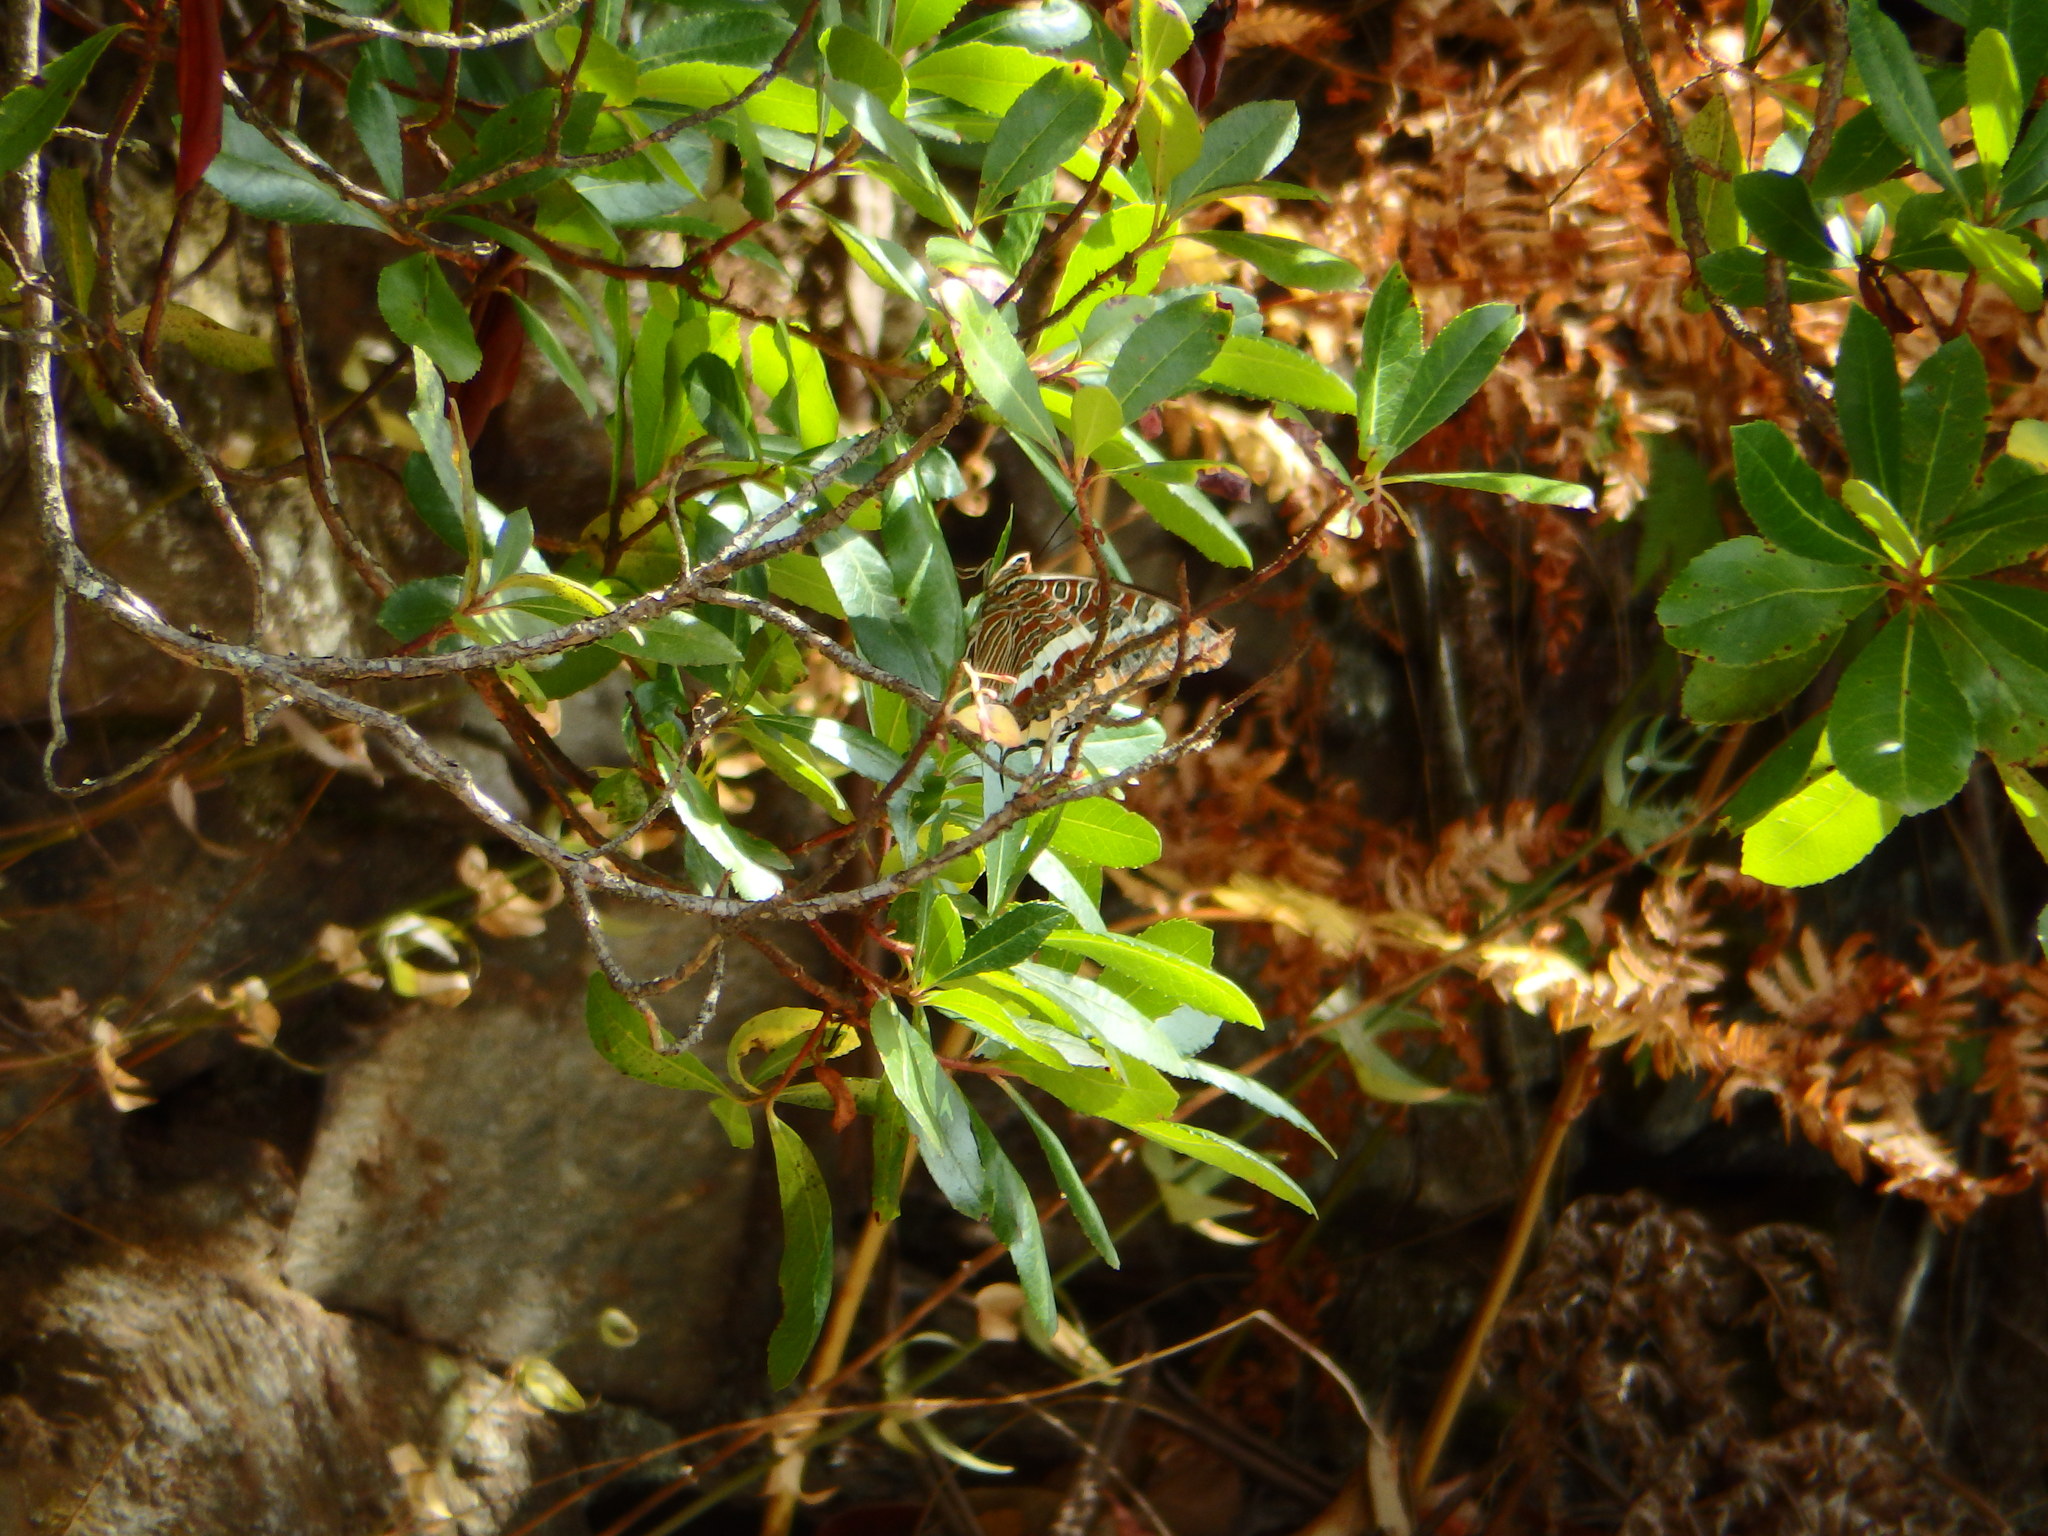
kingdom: Animalia
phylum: Arthropoda
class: Insecta
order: Lepidoptera
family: Nymphalidae
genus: Charaxes
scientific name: Charaxes jasius
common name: Two tailed pasha
